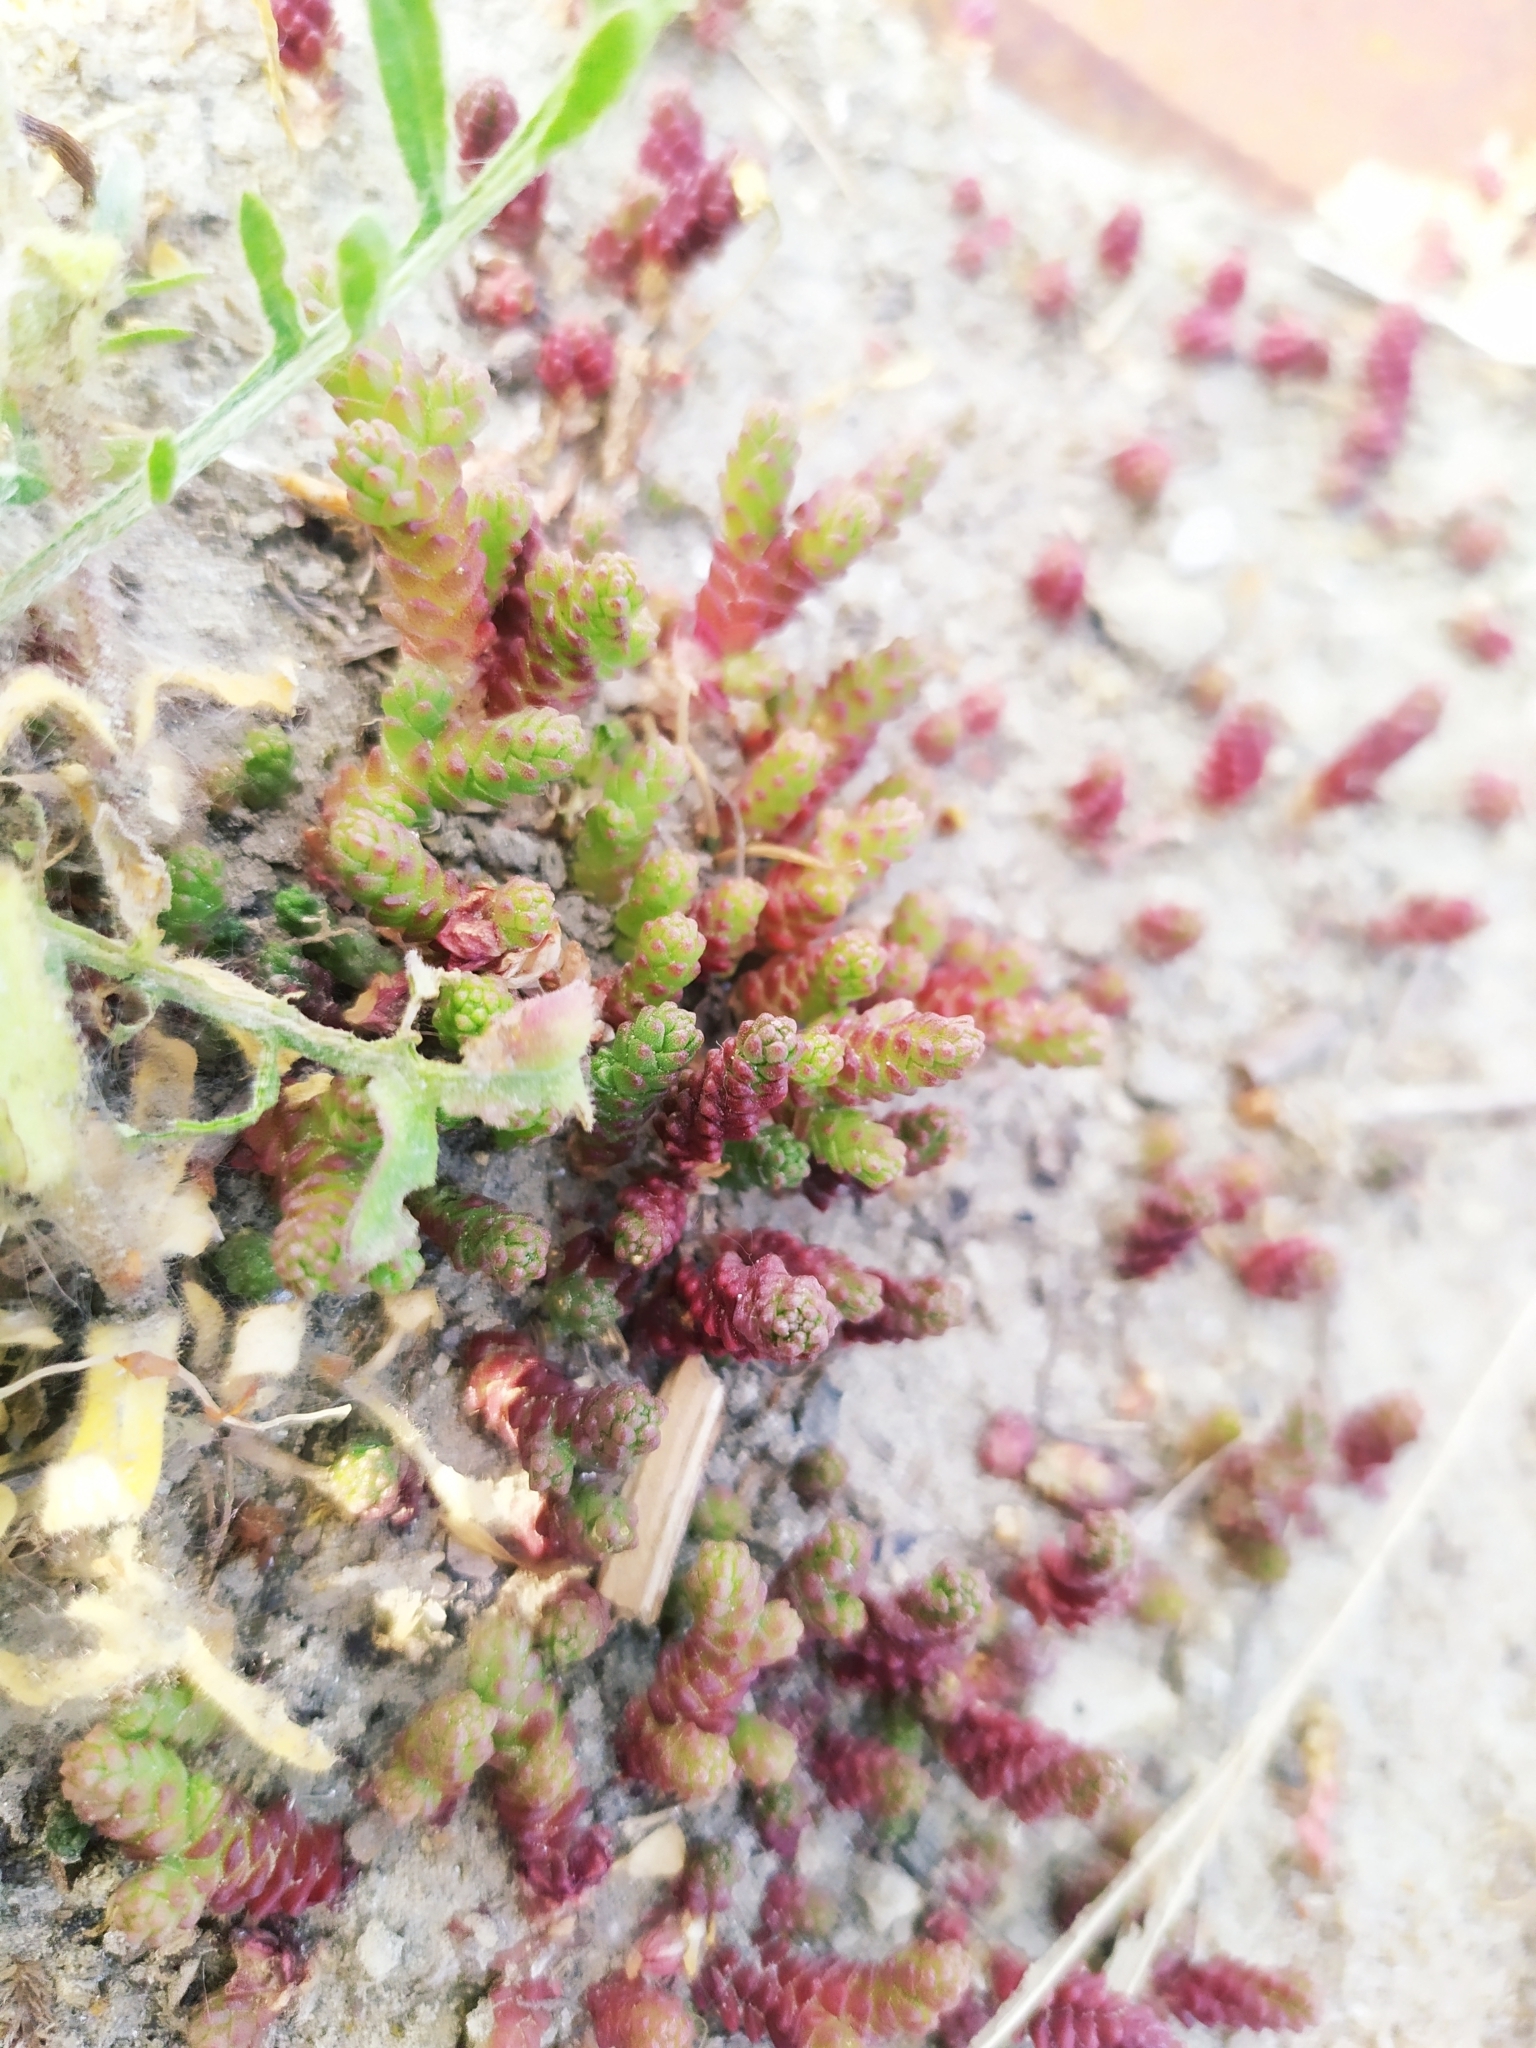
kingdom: Plantae
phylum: Tracheophyta
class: Magnoliopsida
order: Saxifragales
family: Crassulaceae
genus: Sedum
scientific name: Sedum acre
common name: Biting stonecrop
